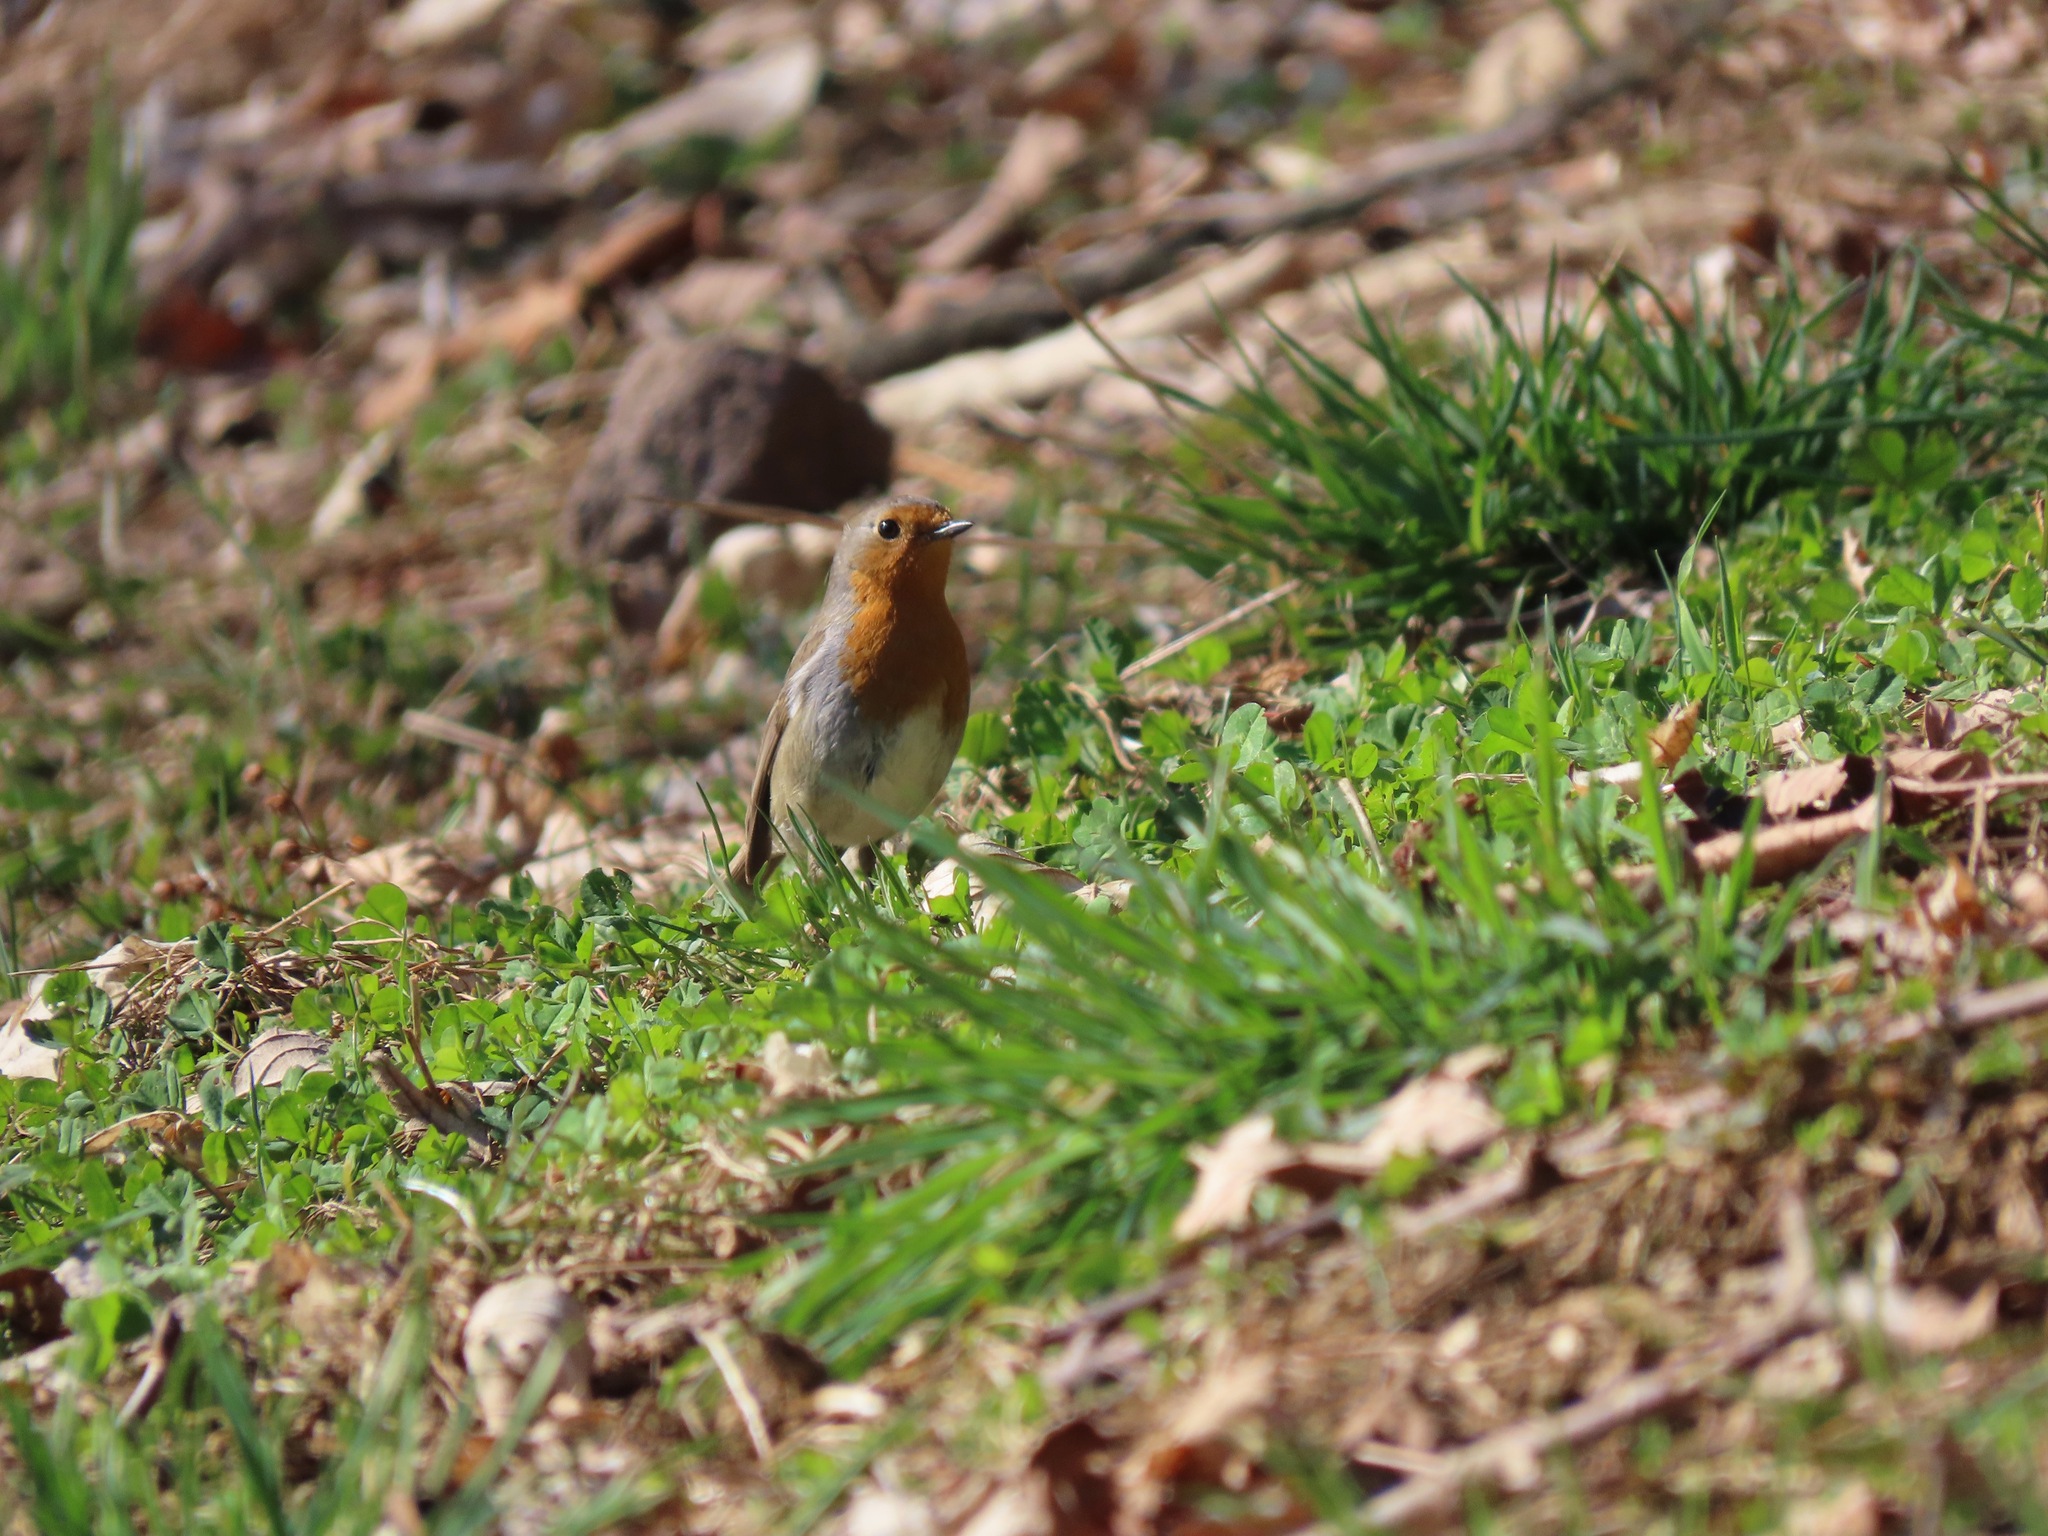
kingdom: Animalia
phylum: Chordata
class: Aves
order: Passeriformes
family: Muscicapidae
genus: Erithacus
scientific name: Erithacus rubecula
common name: European robin
